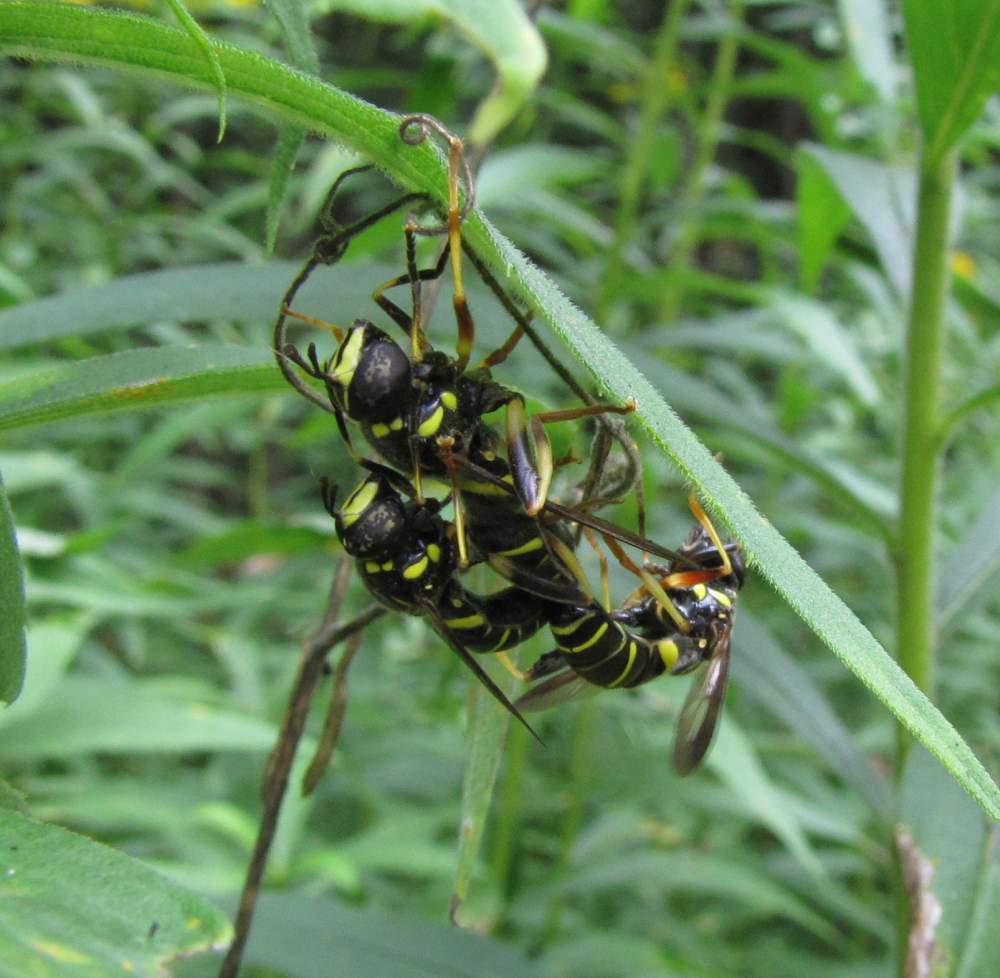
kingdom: Animalia
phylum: Arthropoda
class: Insecta
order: Diptera
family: Syrphidae
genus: Spilomyia
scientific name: Spilomyia sayi
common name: Four-lined hornet fly
